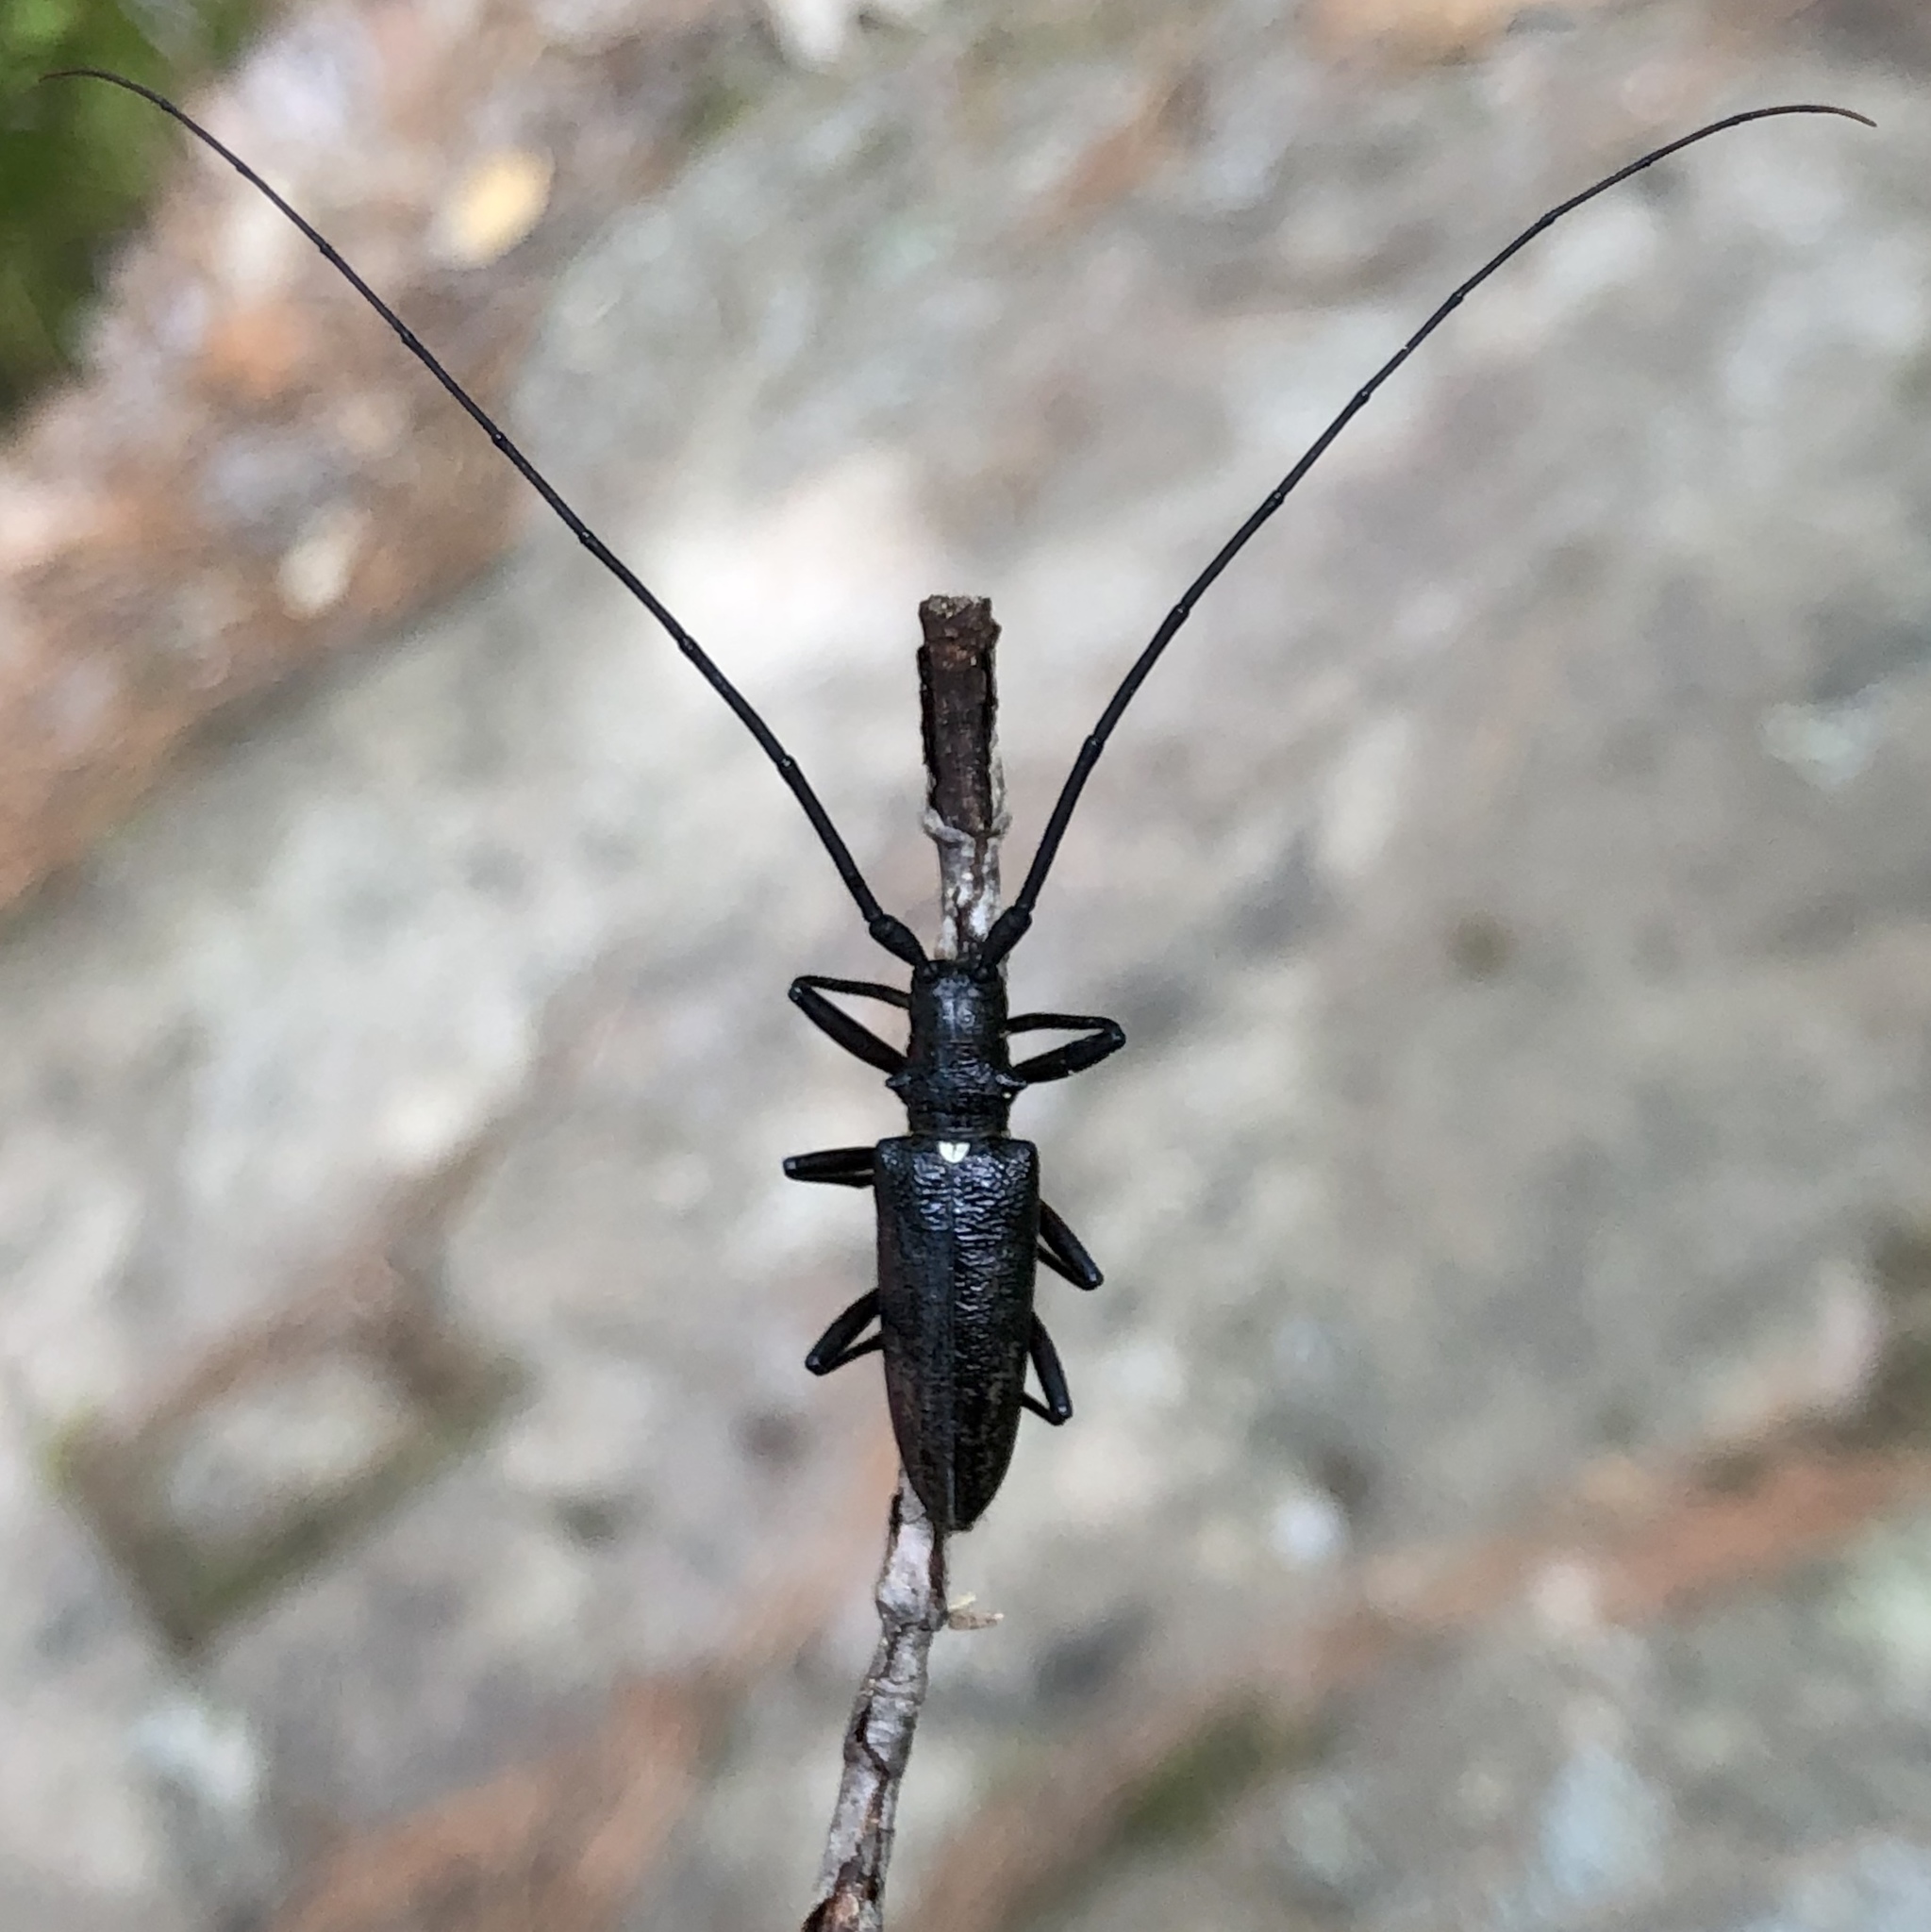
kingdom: Animalia
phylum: Arthropoda
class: Insecta
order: Coleoptera
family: Cerambycidae
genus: Monochamus
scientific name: Monochamus scutellatus
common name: White-spotted sawyer beetle
